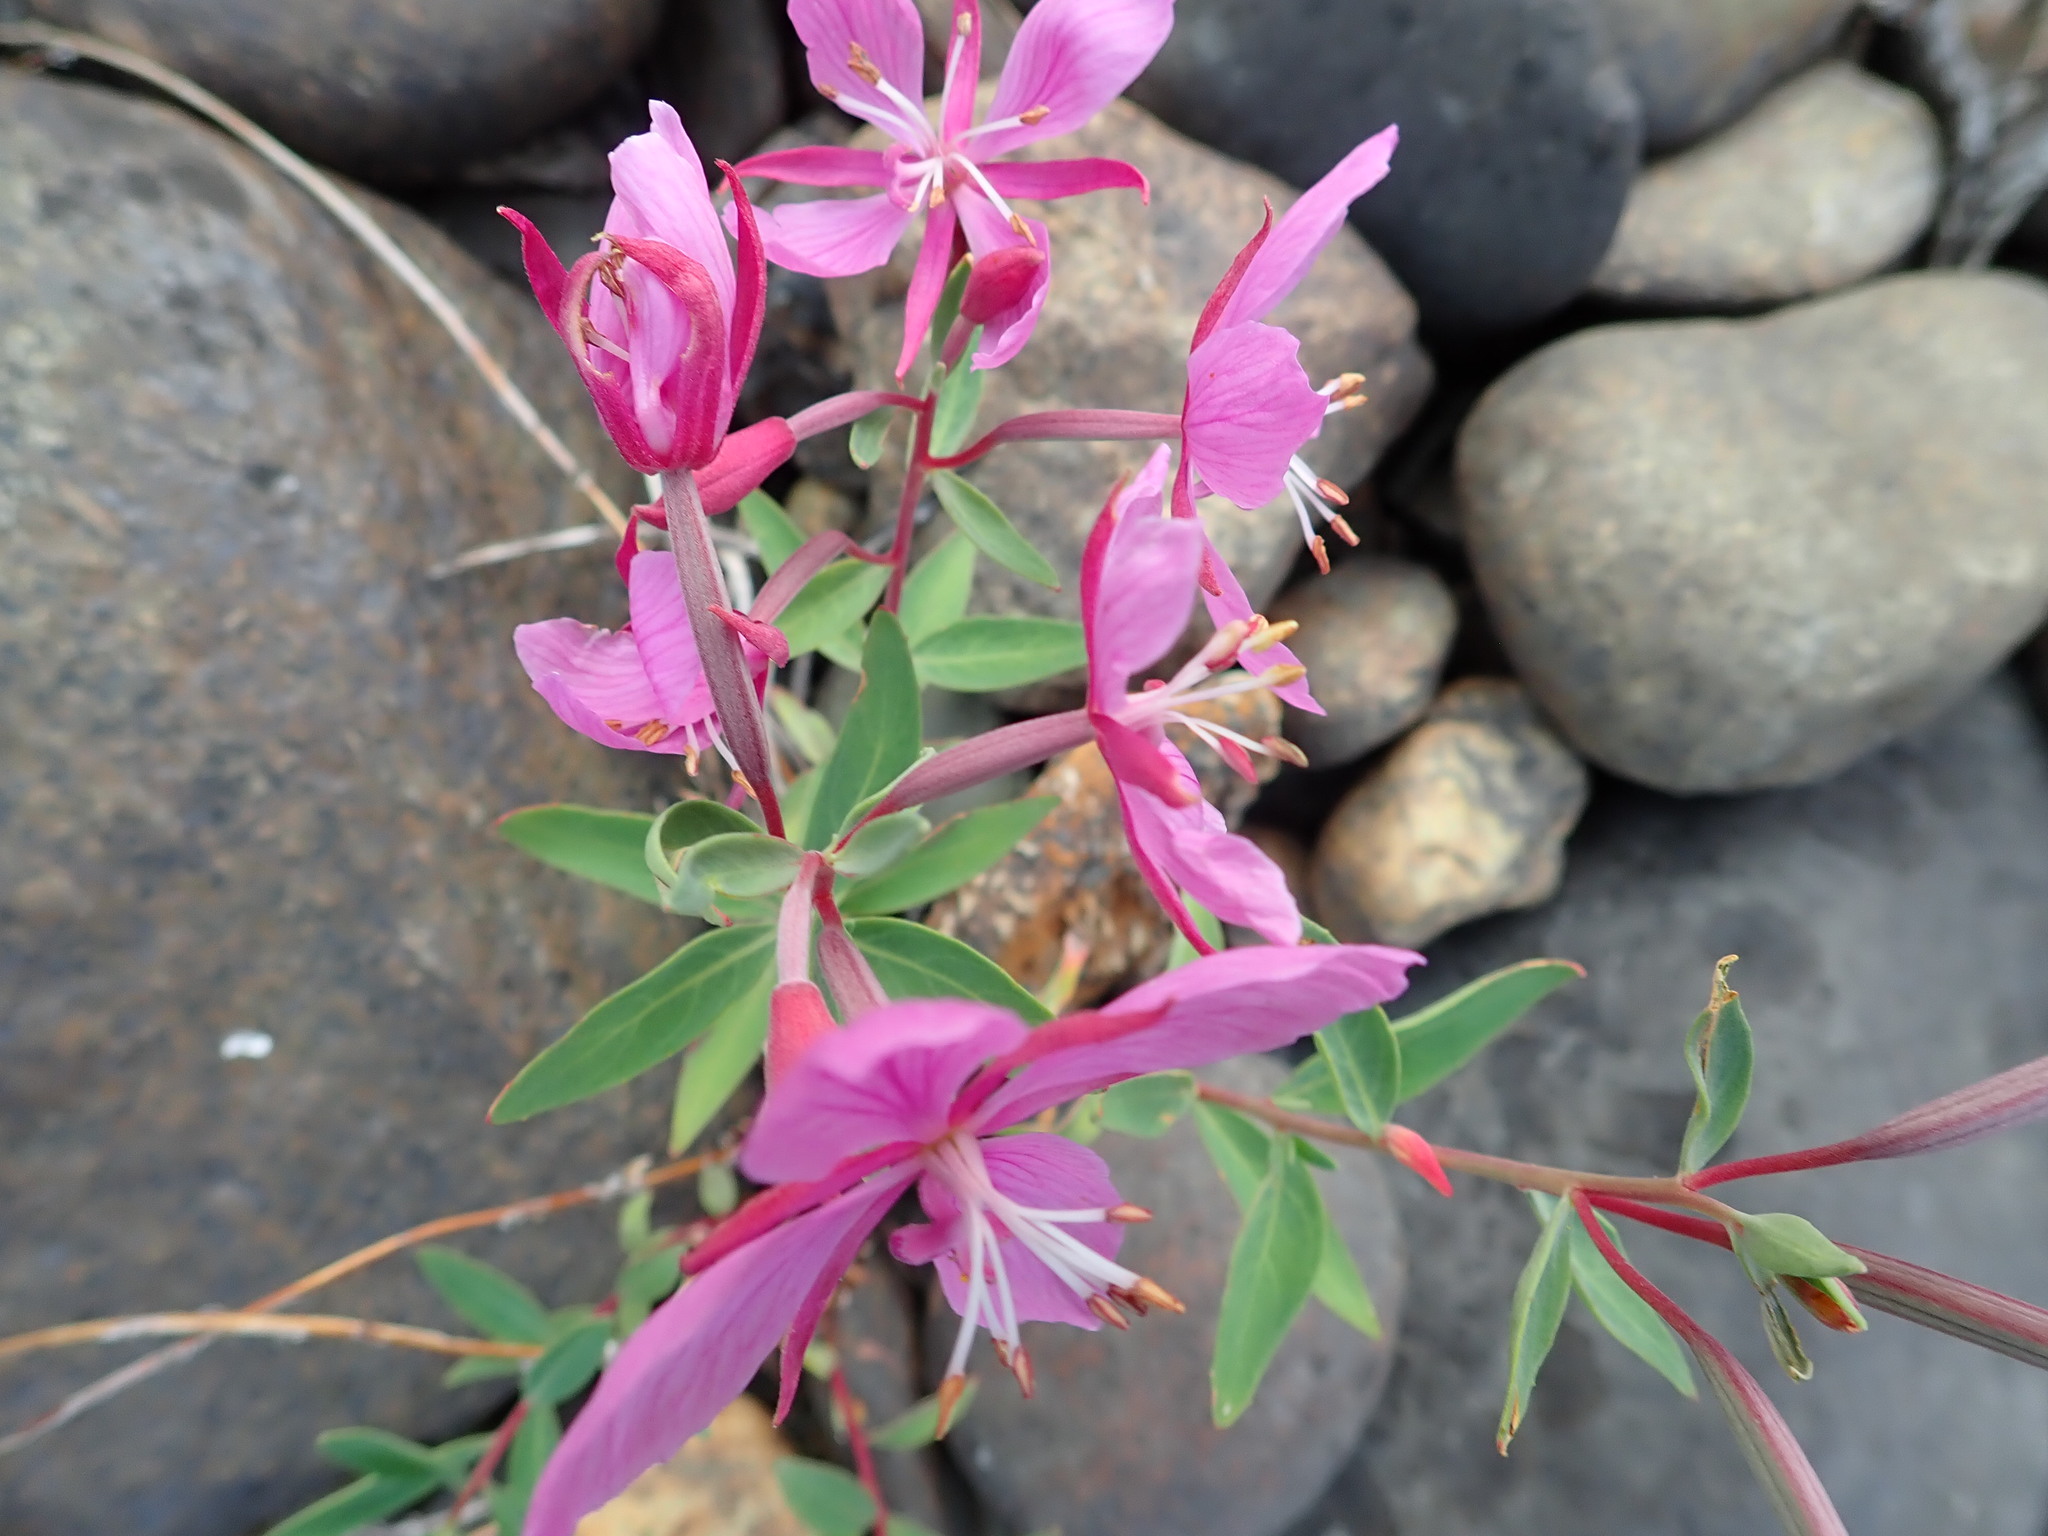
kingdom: Plantae
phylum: Tracheophyta
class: Magnoliopsida
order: Myrtales
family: Onagraceae
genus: Chamaenerion
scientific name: Chamaenerion latifolium
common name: Dwarf fireweed
